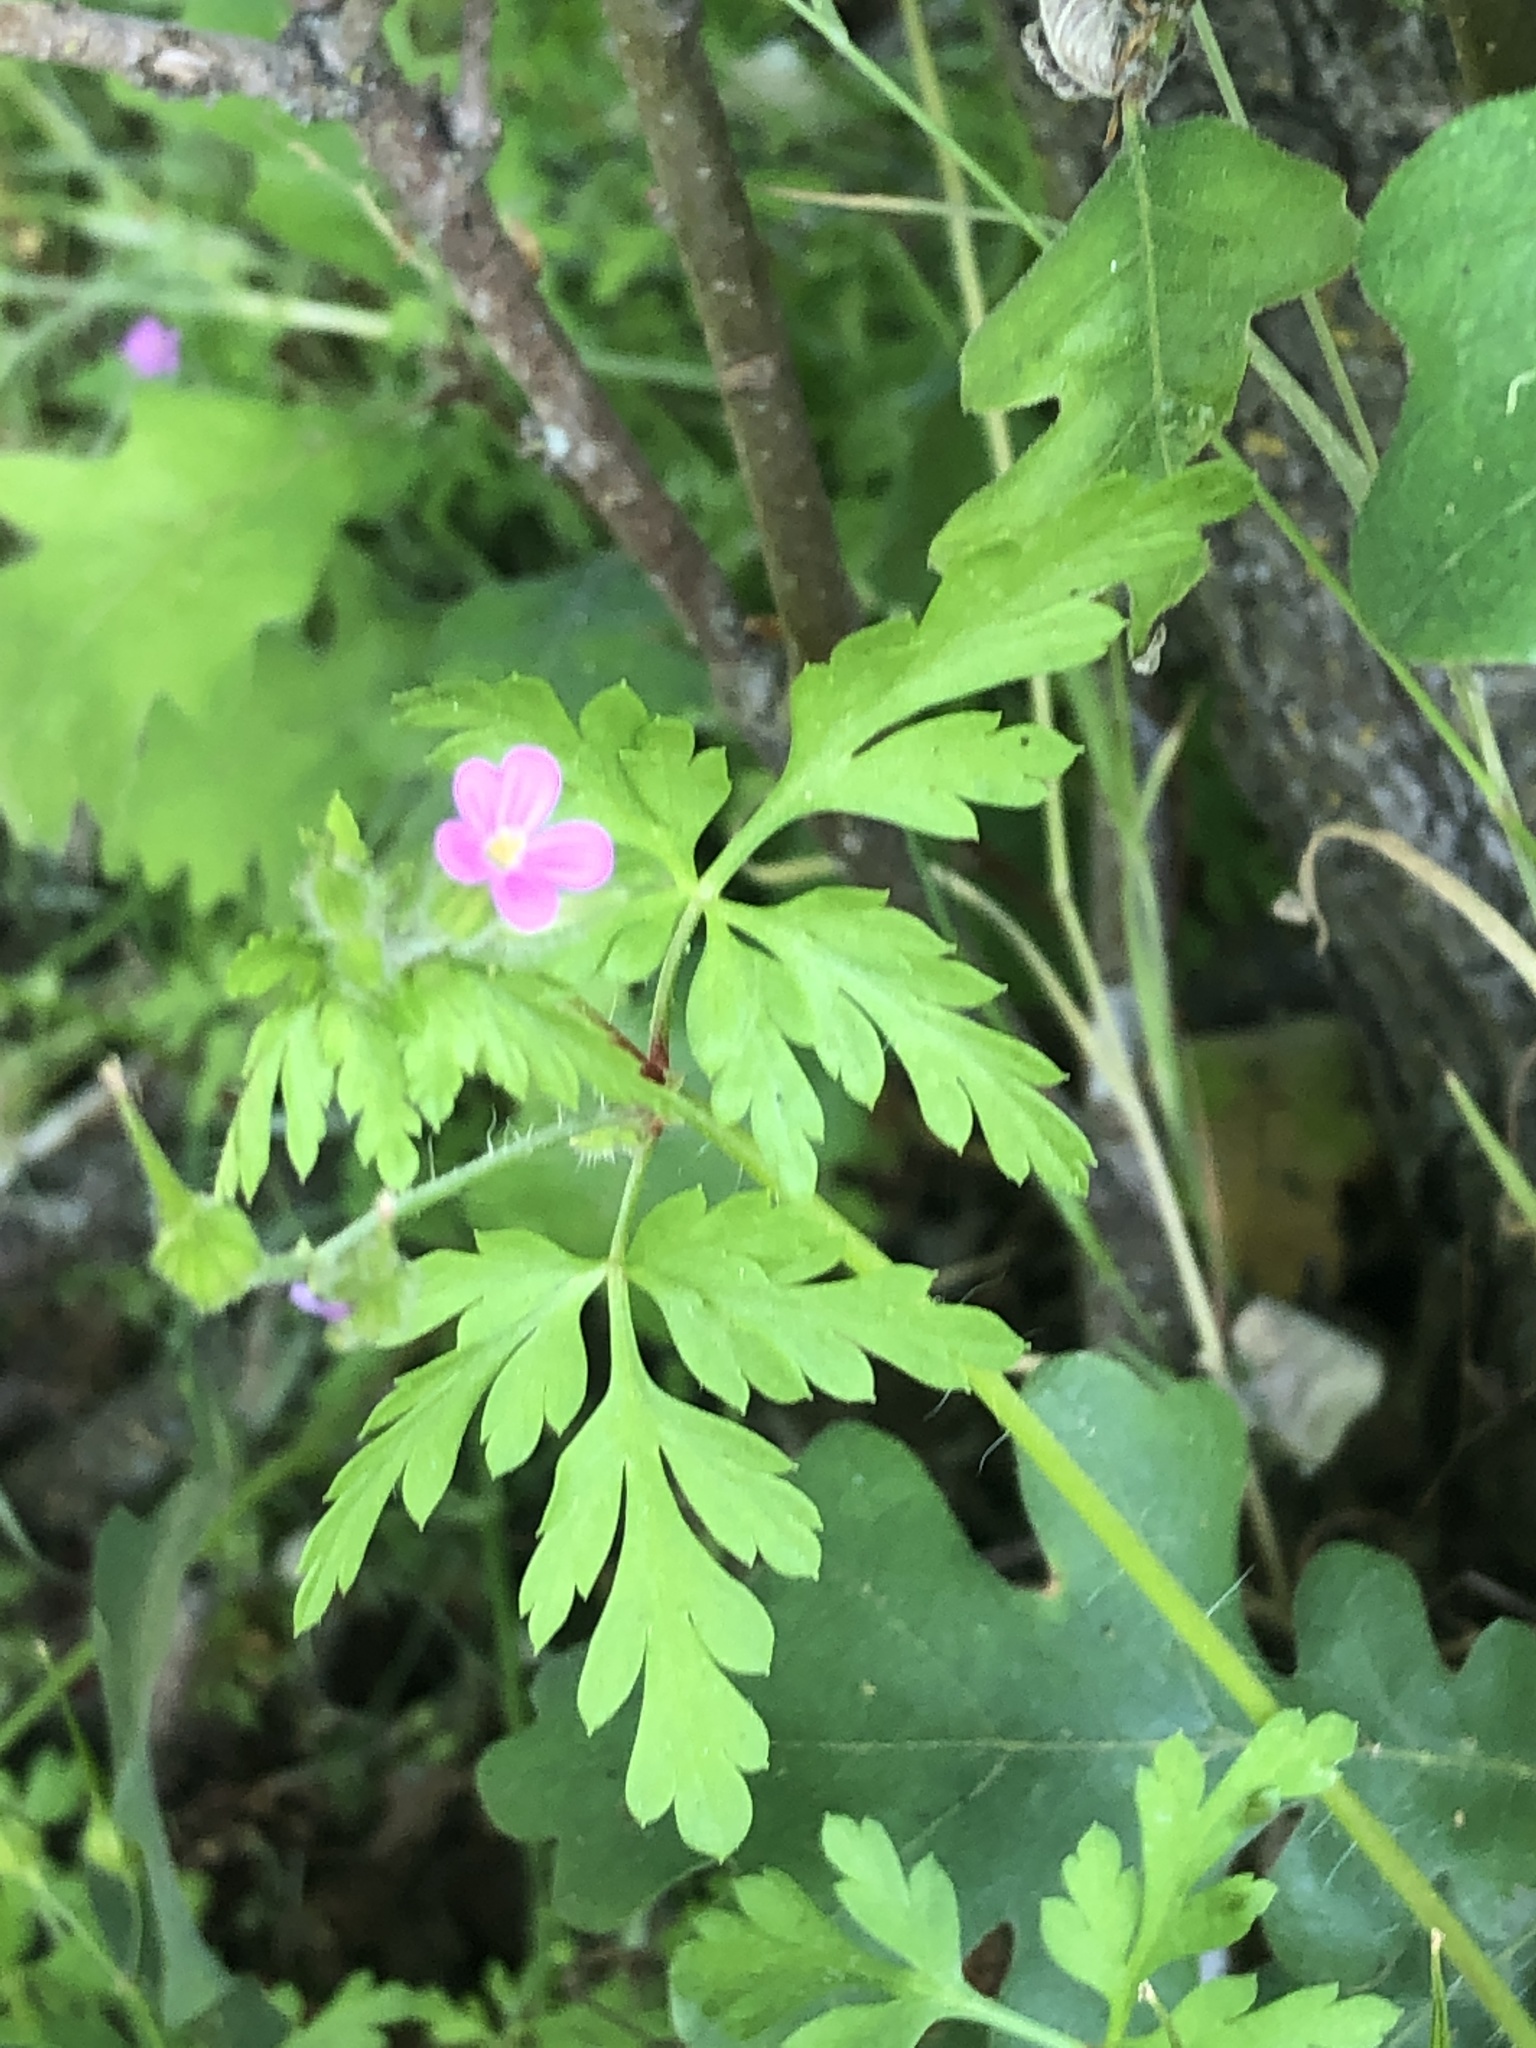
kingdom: Plantae
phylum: Tracheophyta
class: Magnoliopsida
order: Geraniales
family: Geraniaceae
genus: Geranium
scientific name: Geranium purpureum
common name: Little-robin
